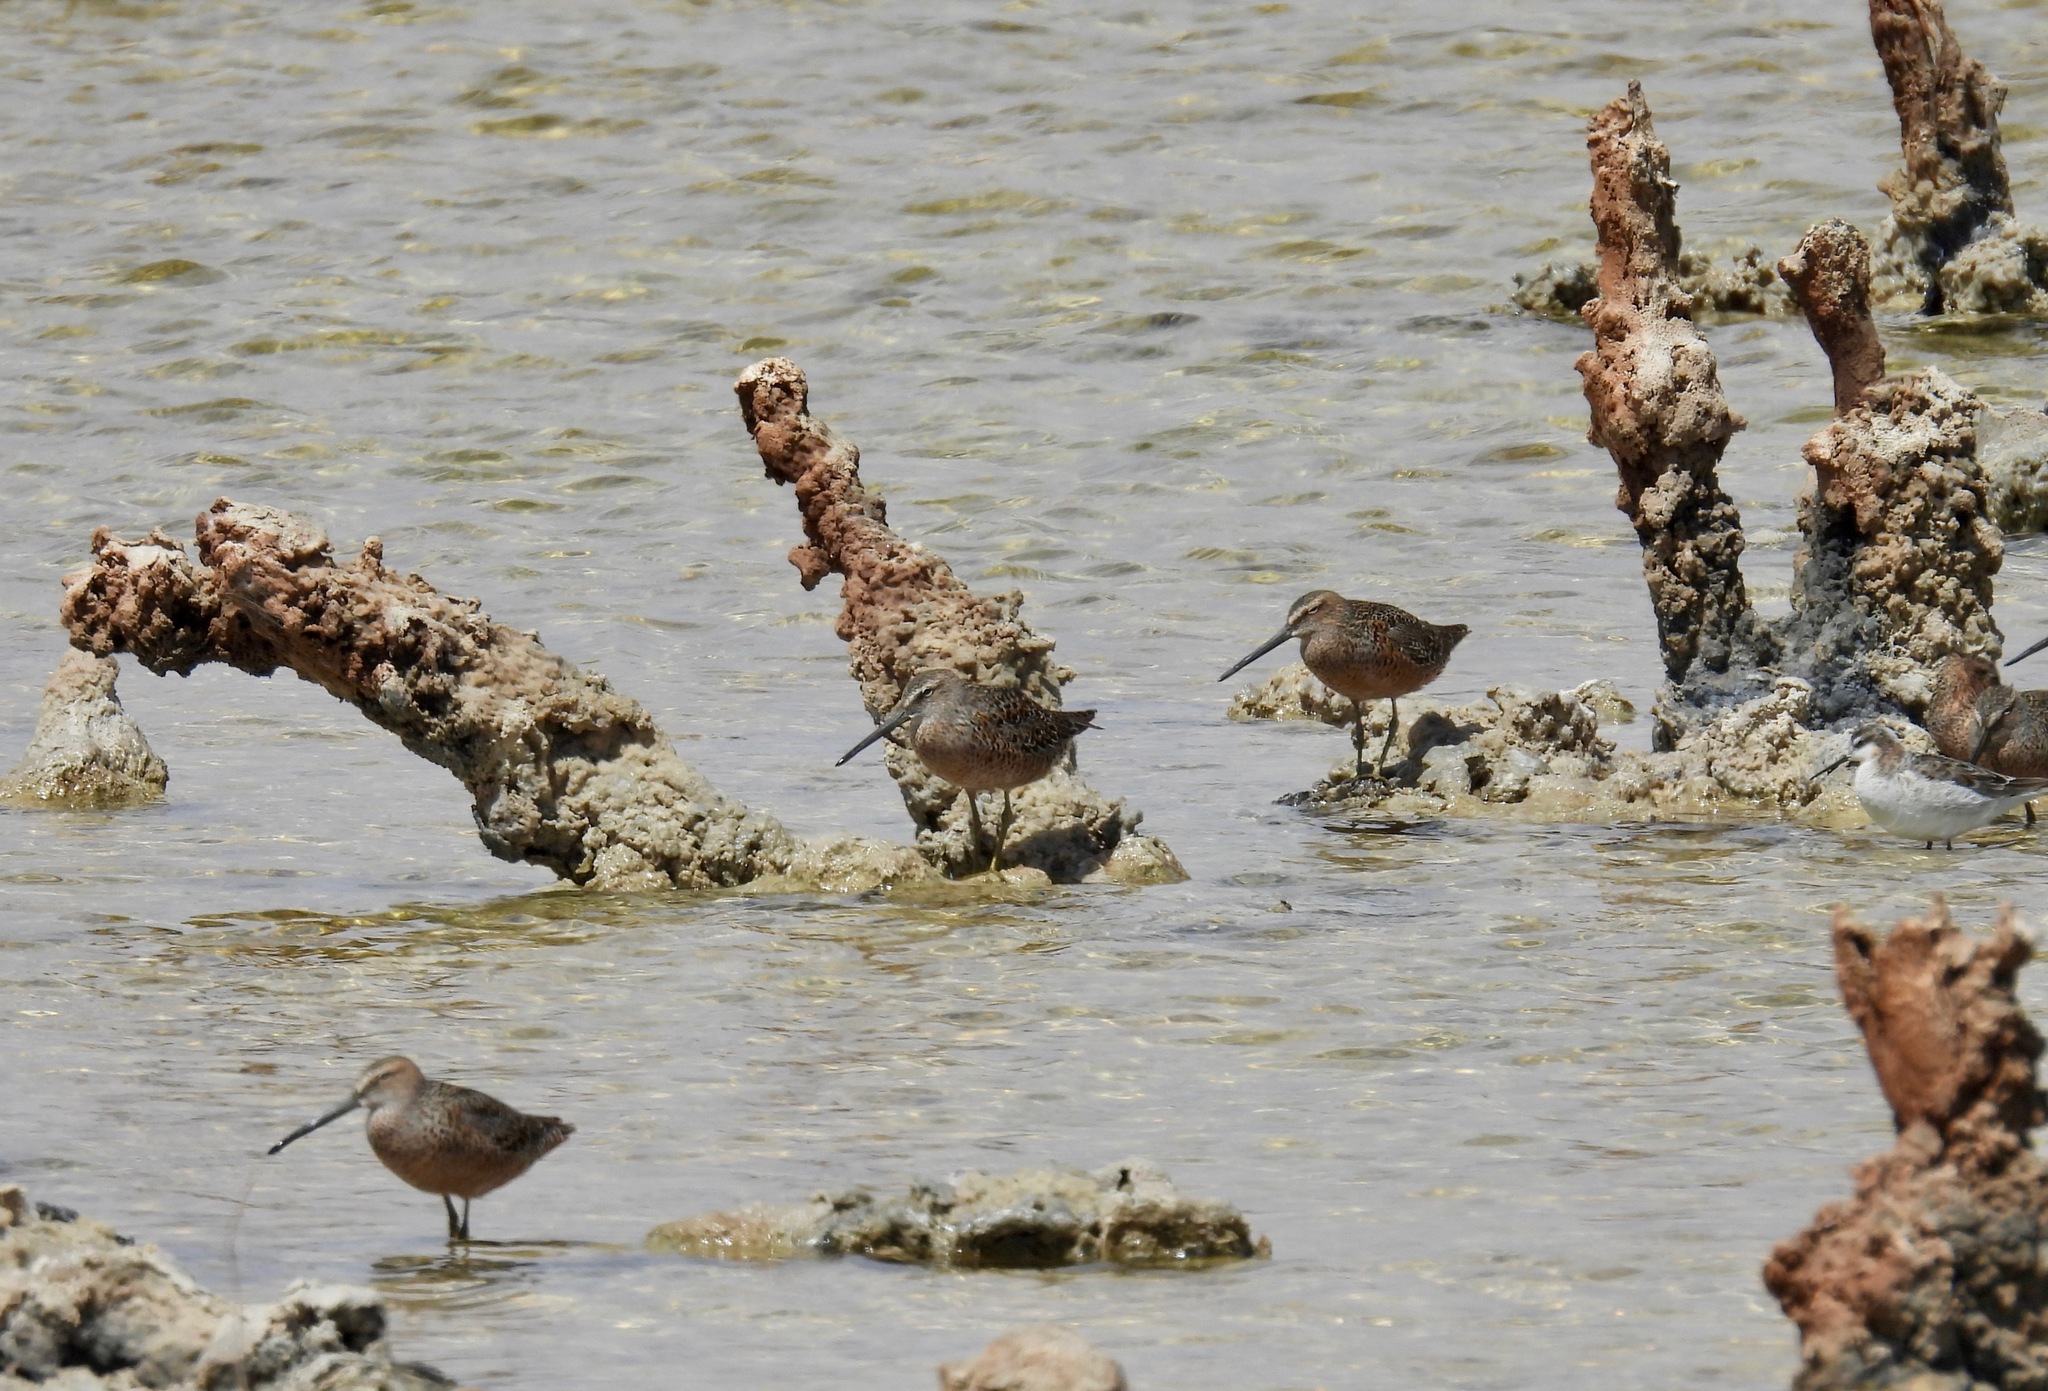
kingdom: Animalia
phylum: Chordata
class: Aves
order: Charadriiformes
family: Scolopacidae
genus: Limnodromus
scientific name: Limnodromus scolopaceus
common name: Long-billed dowitcher
